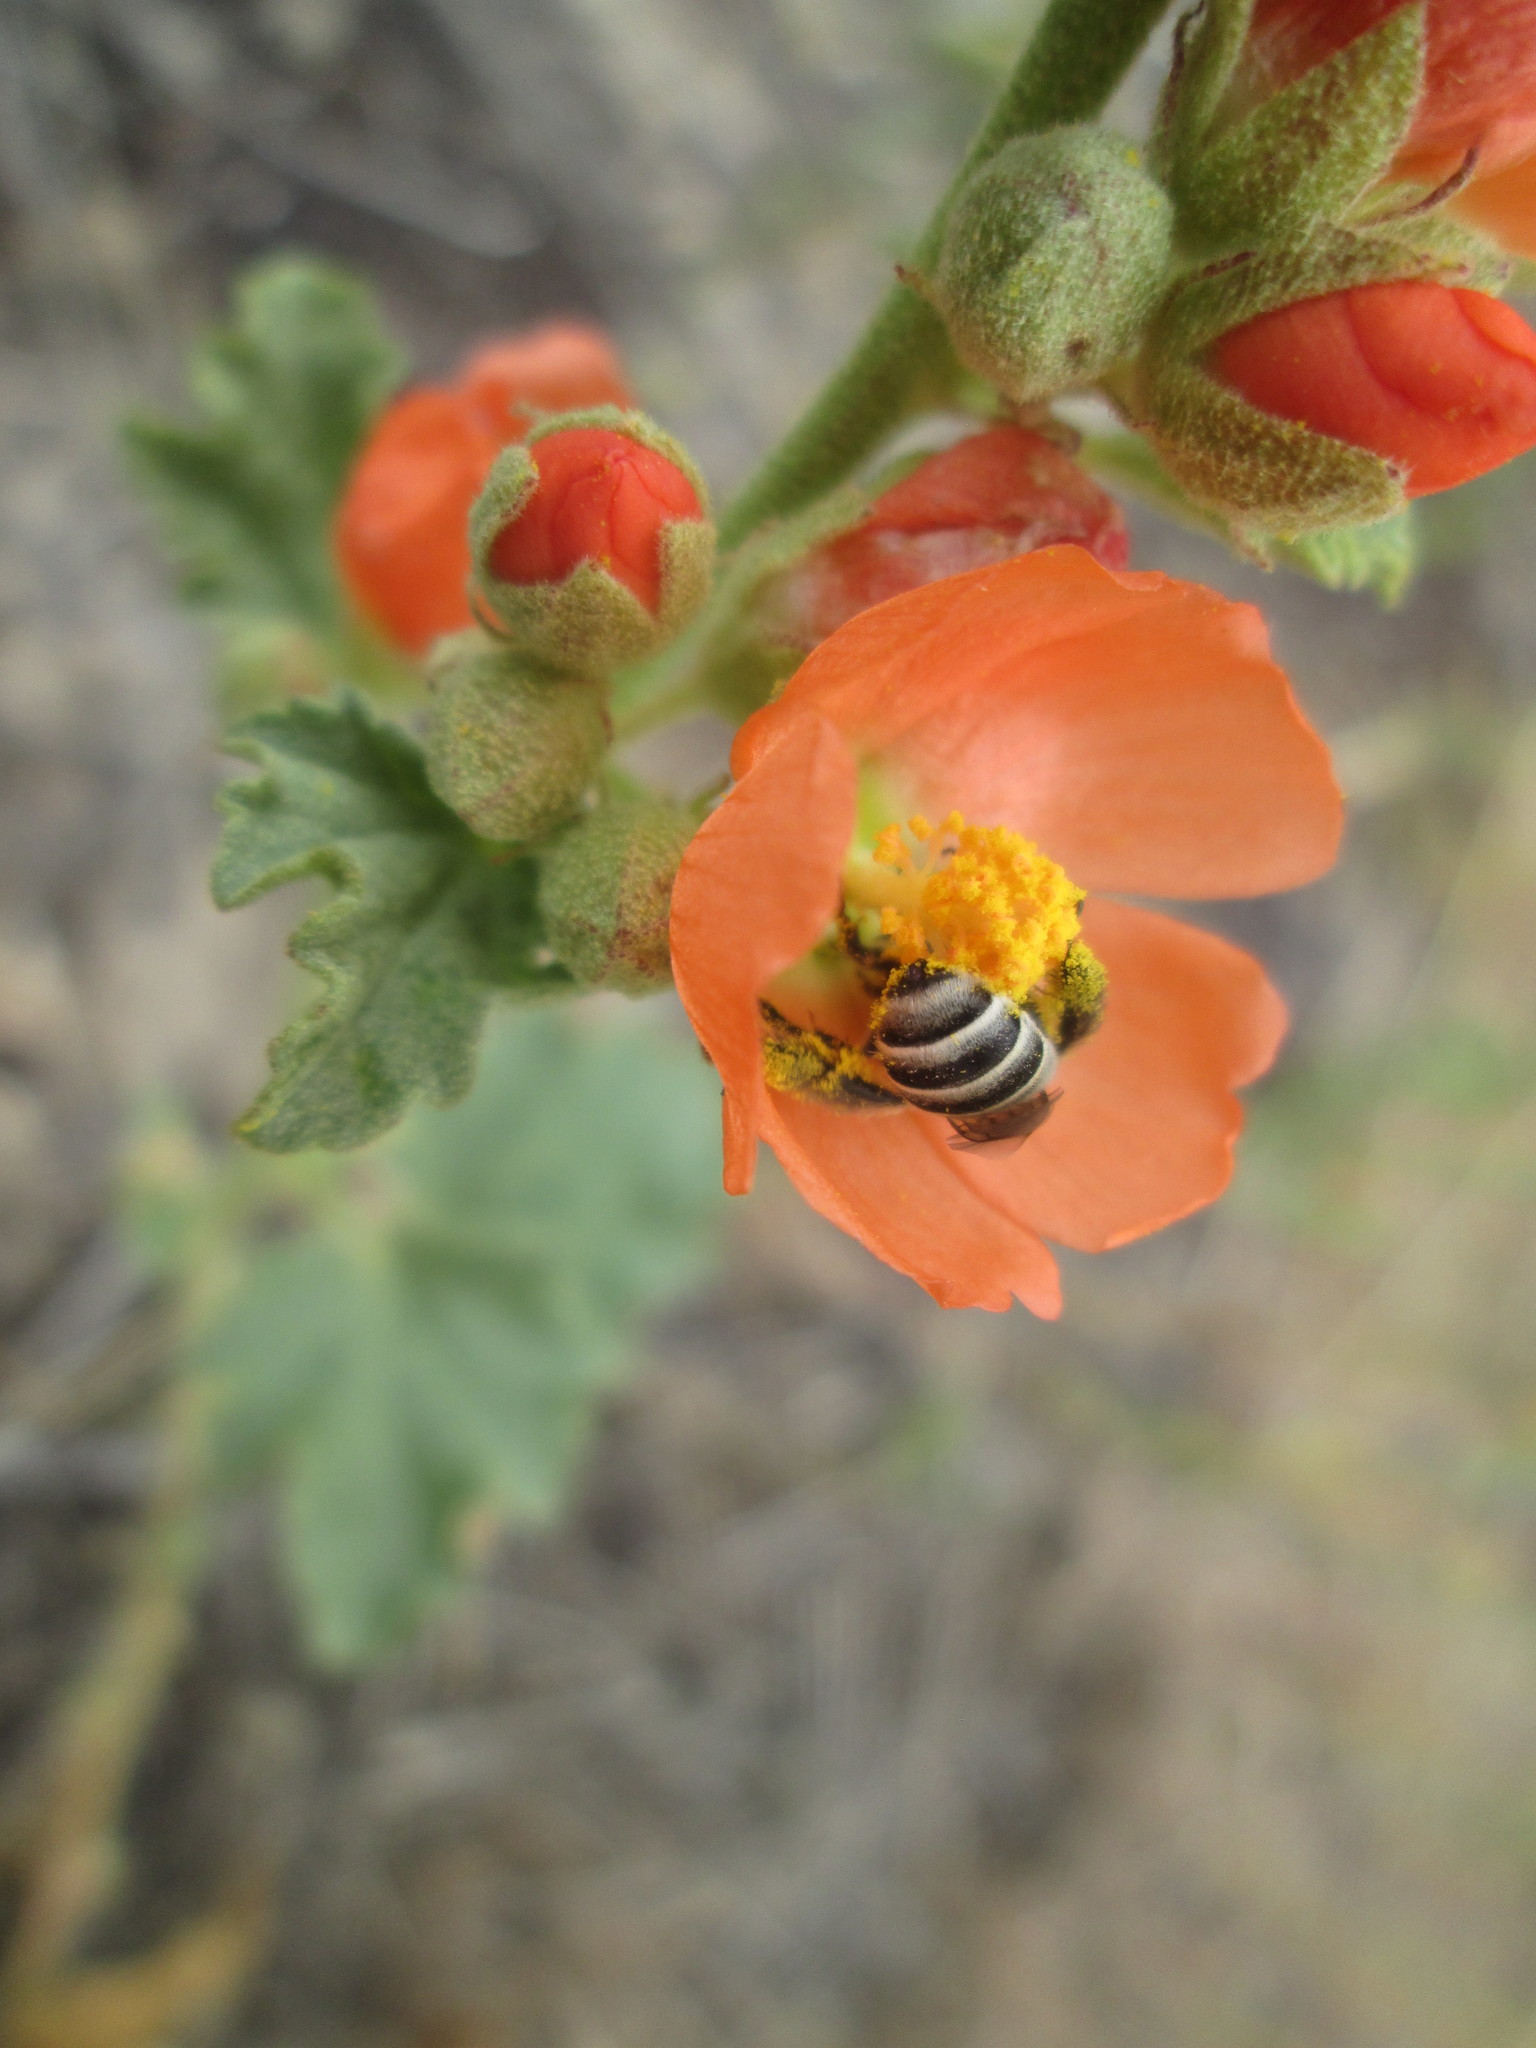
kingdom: Plantae
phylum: Tracheophyta
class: Magnoliopsida
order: Malvales
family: Malvaceae
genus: Sphaeralcea
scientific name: Sphaeralcea munroana
